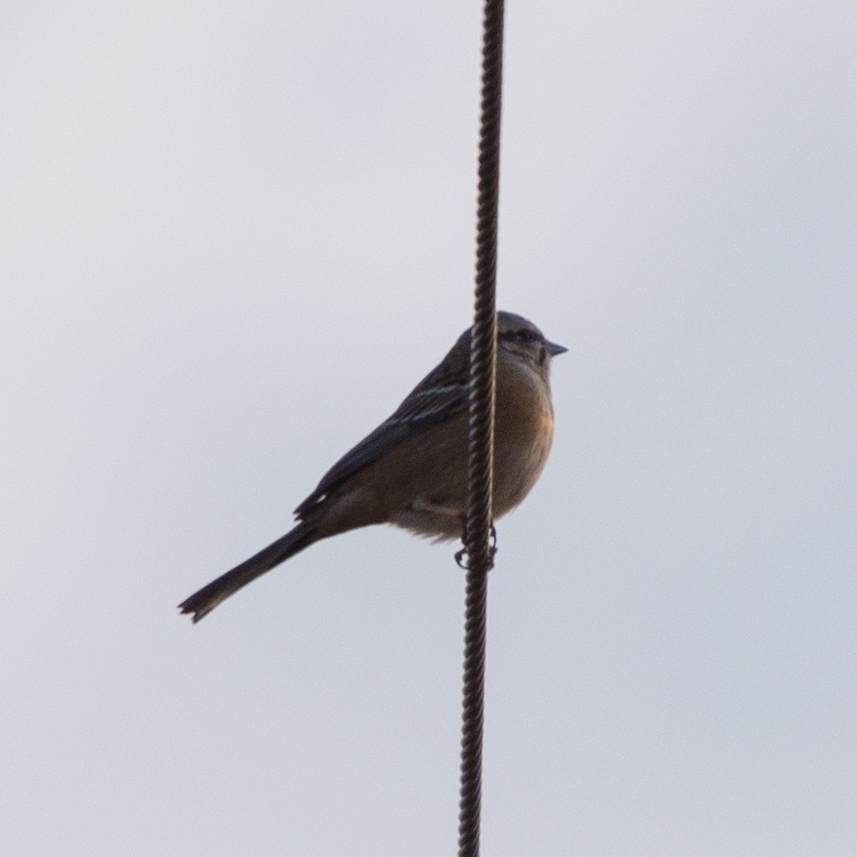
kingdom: Animalia
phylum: Chordata
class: Aves
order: Passeriformes
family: Emberizidae
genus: Emberiza
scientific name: Emberiza cia
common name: Rock bunting
